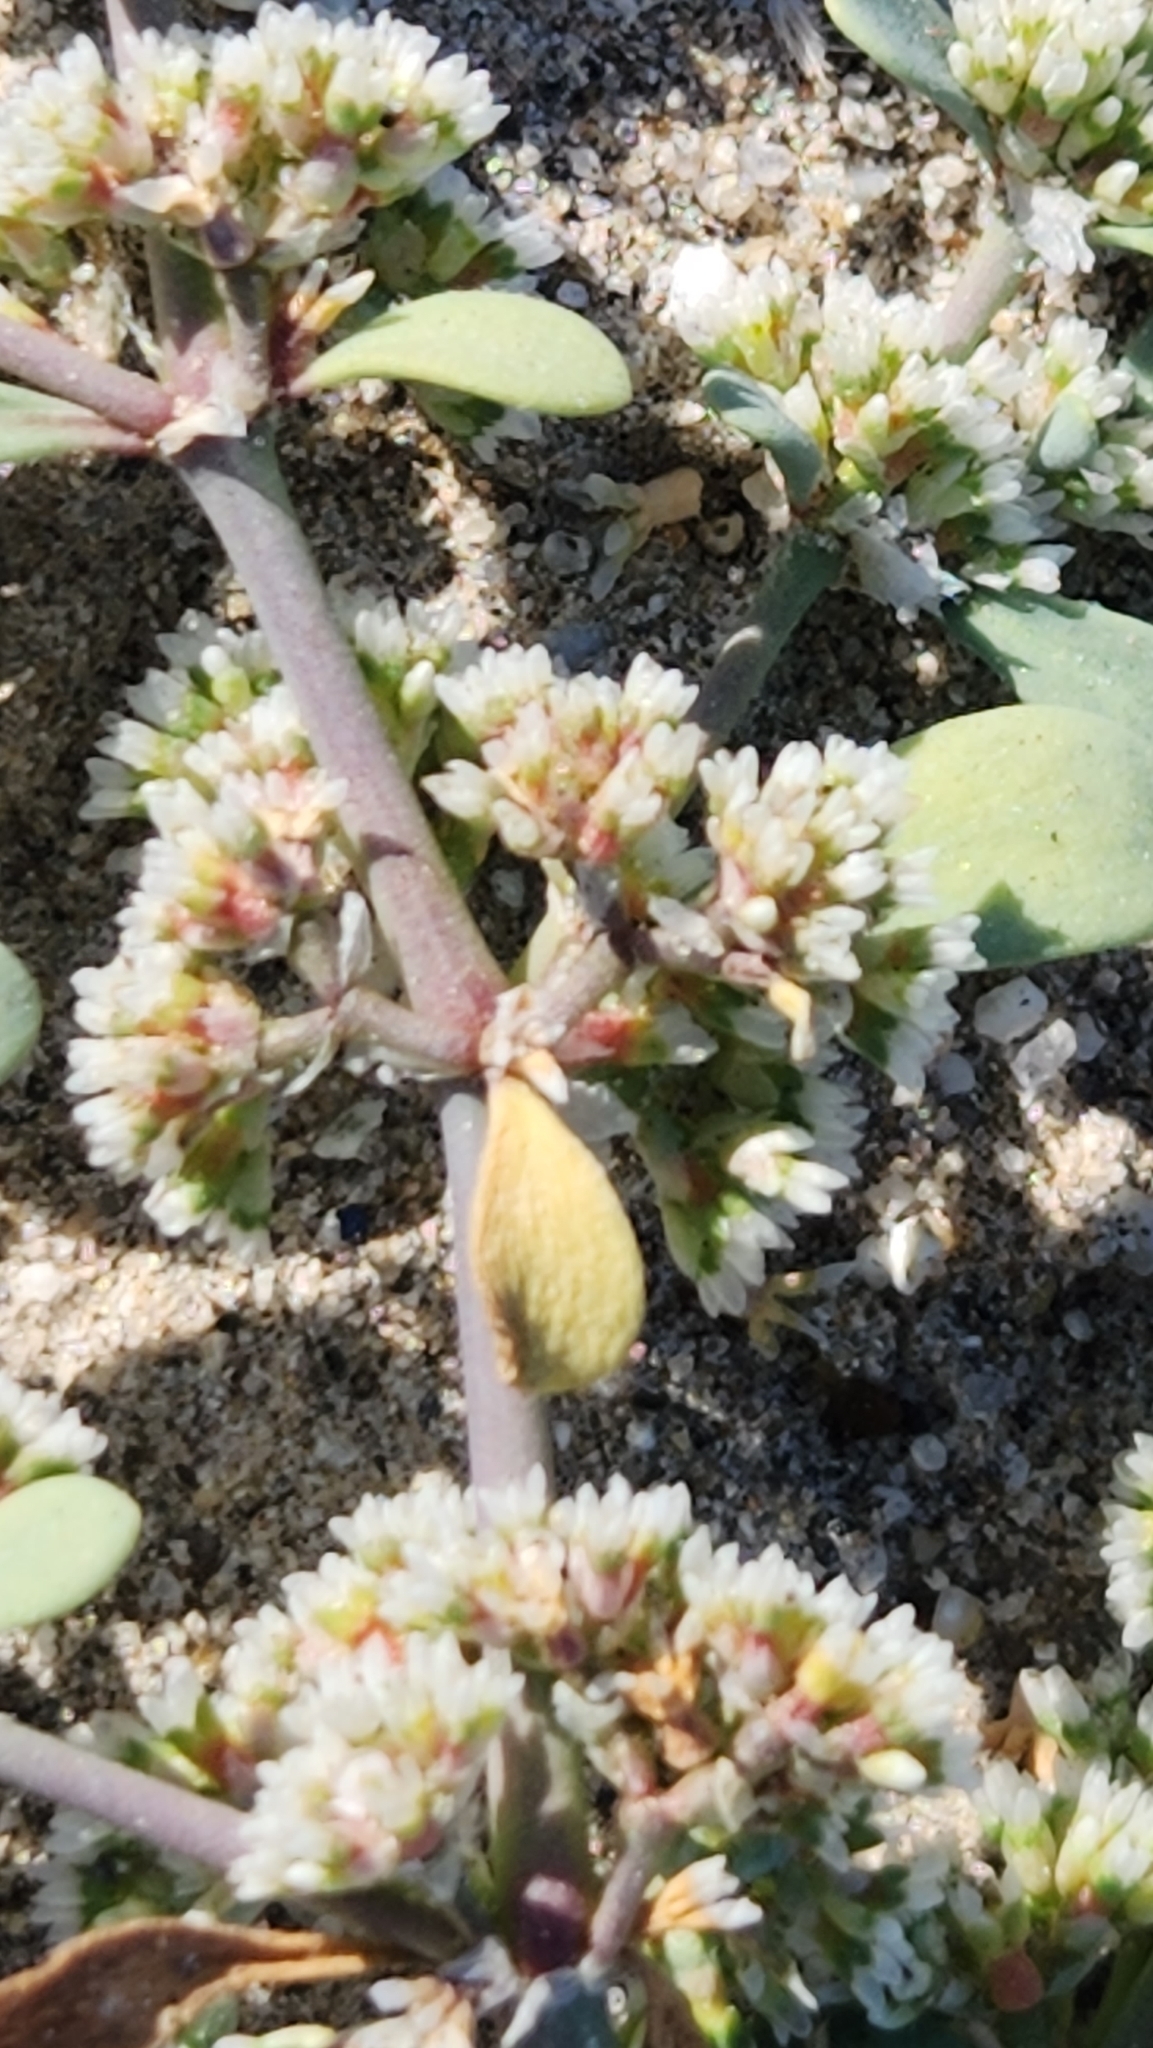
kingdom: Plantae
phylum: Tracheophyta
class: Magnoliopsida
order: Caryophyllales
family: Caryophyllaceae
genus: Achyronychia
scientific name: Achyronychia cooperi
